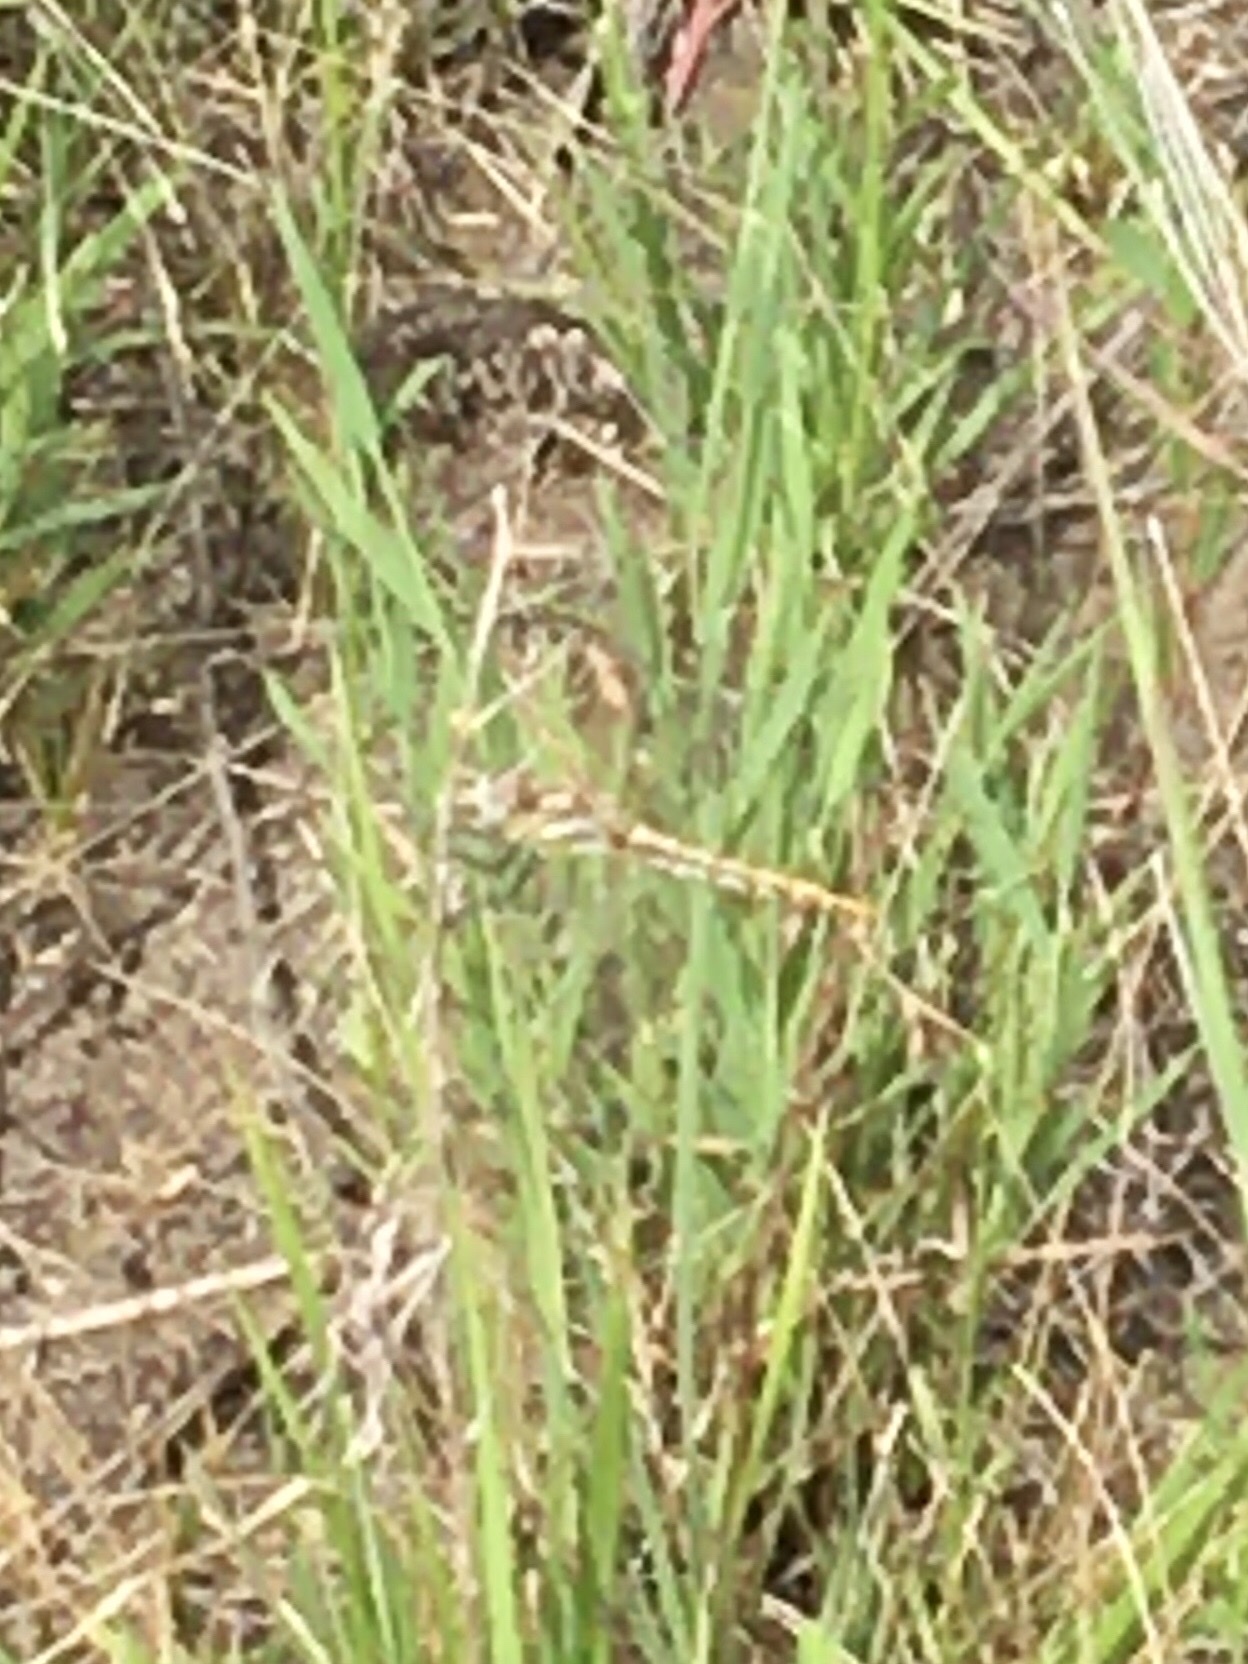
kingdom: Animalia
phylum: Arthropoda
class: Insecta
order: Odonata
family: Libellulidae
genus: Sympetrum
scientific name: Sympetrum corruptum
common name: Variegated meadowhawk
